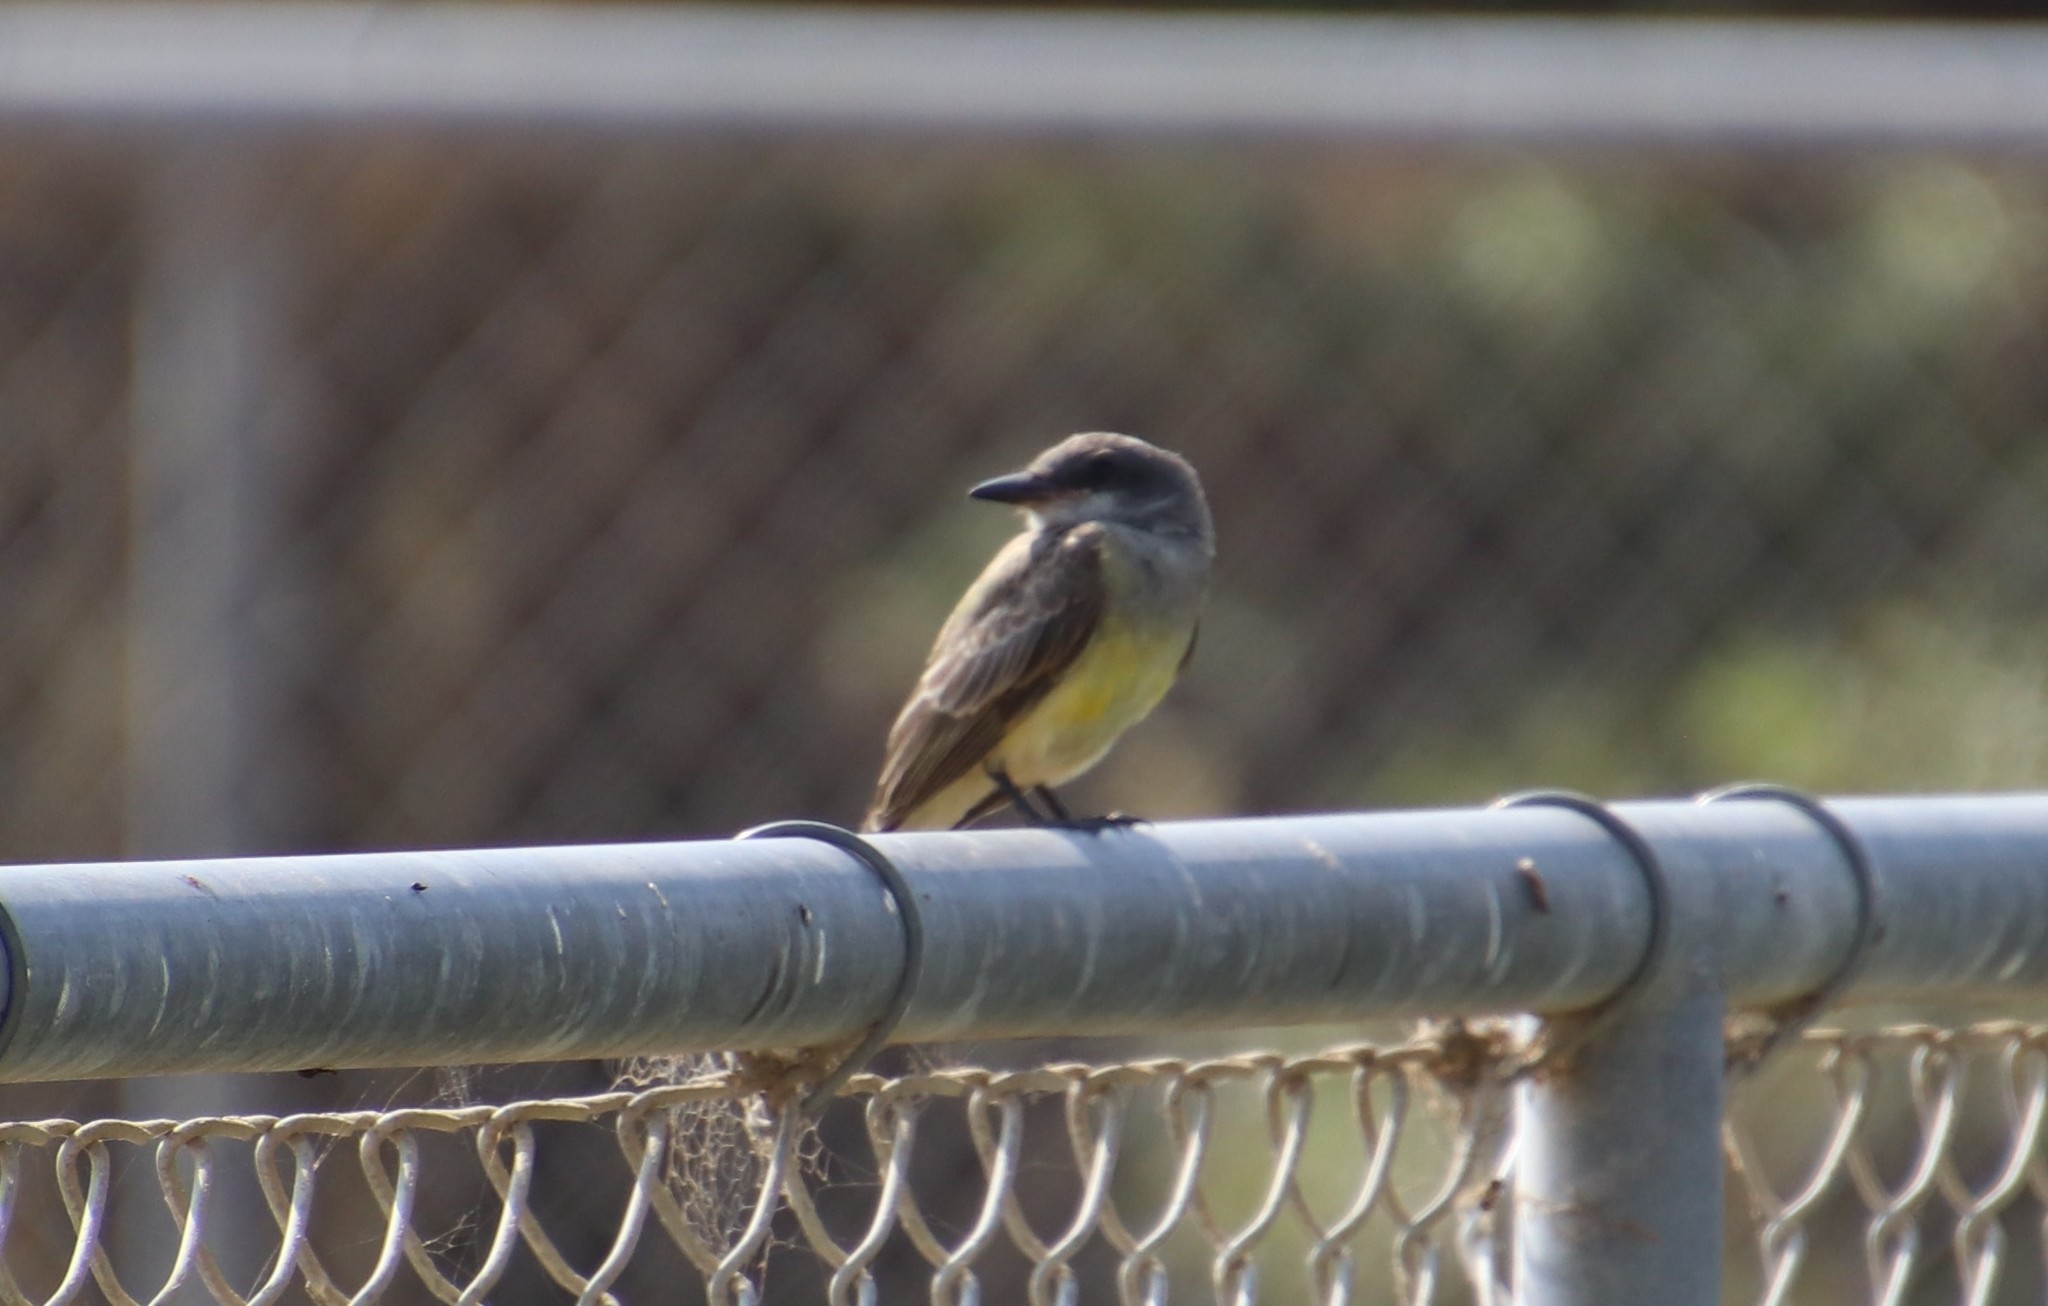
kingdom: Animalia
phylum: Chordata
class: Aves
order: Passeriformes
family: Tyrannidae
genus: Tyrannus
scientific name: Tyrannus vociferans
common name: Cassin's kingbird
